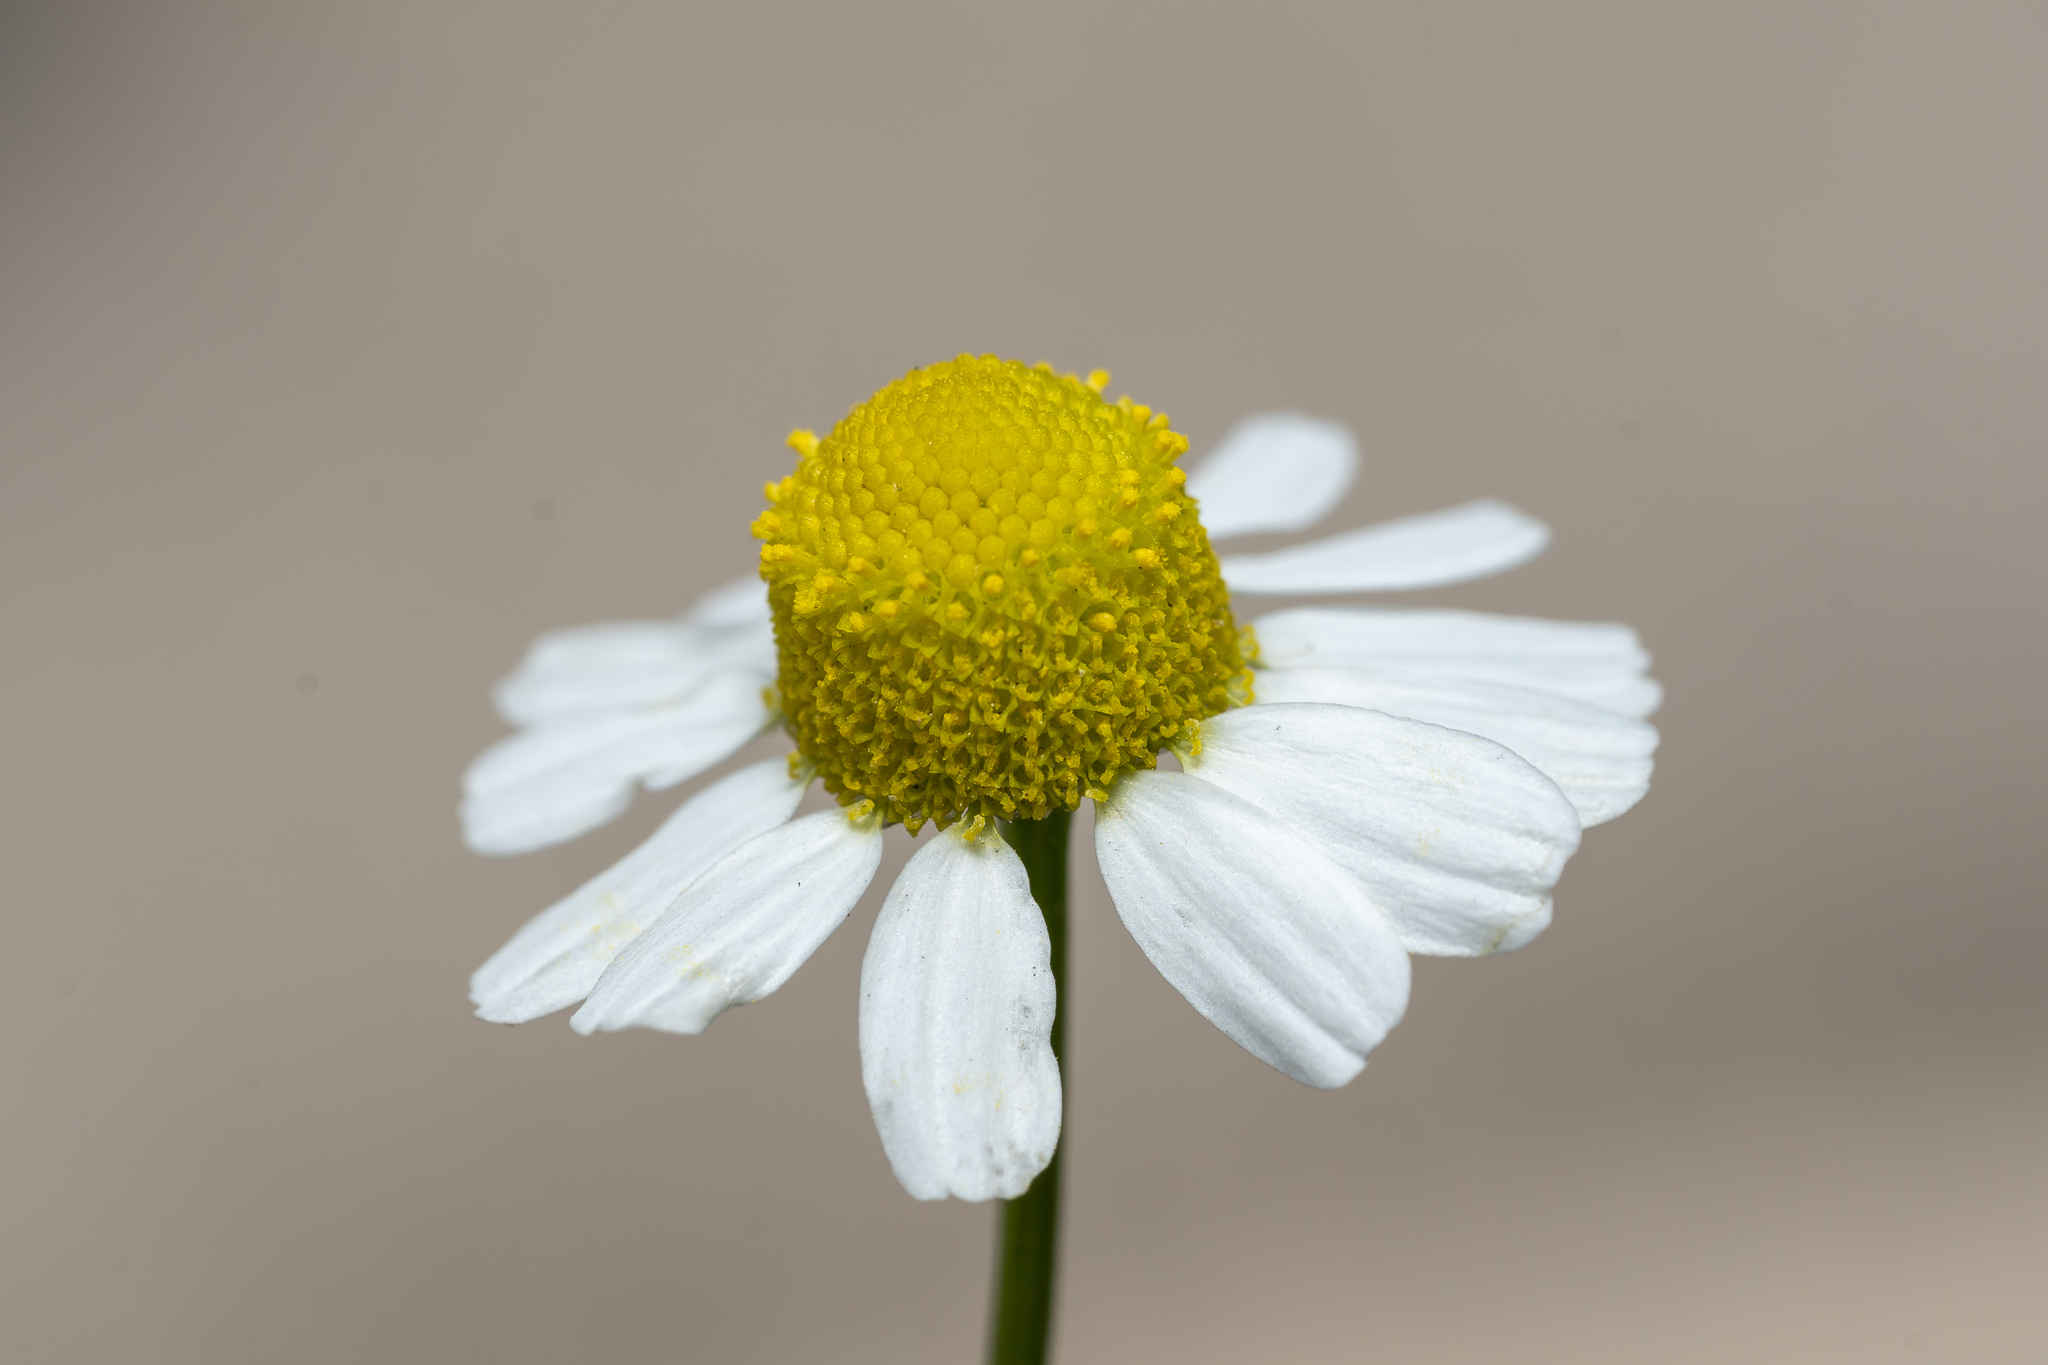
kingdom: Plantae
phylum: Tracheophyta
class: Magnoliopsida
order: Asterales
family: Asteraceae
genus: Matricaria
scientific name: Matricaria chamomilla
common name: Scented mayweed
